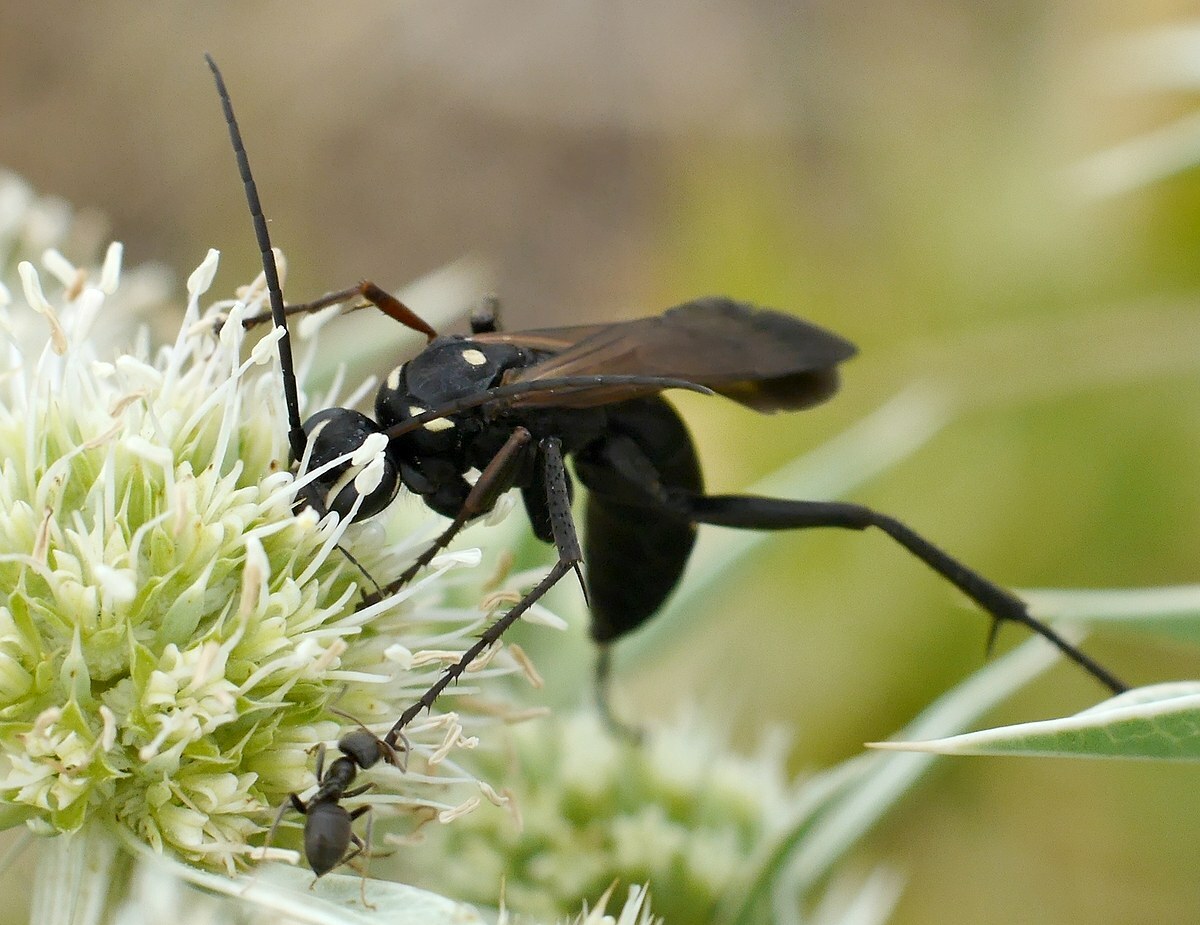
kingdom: Animalia
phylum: Arthropoda
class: Insecta
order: Hymenoptera
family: Pompilidae
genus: Cryptocheilus
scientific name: Cryptocheilus egregius
